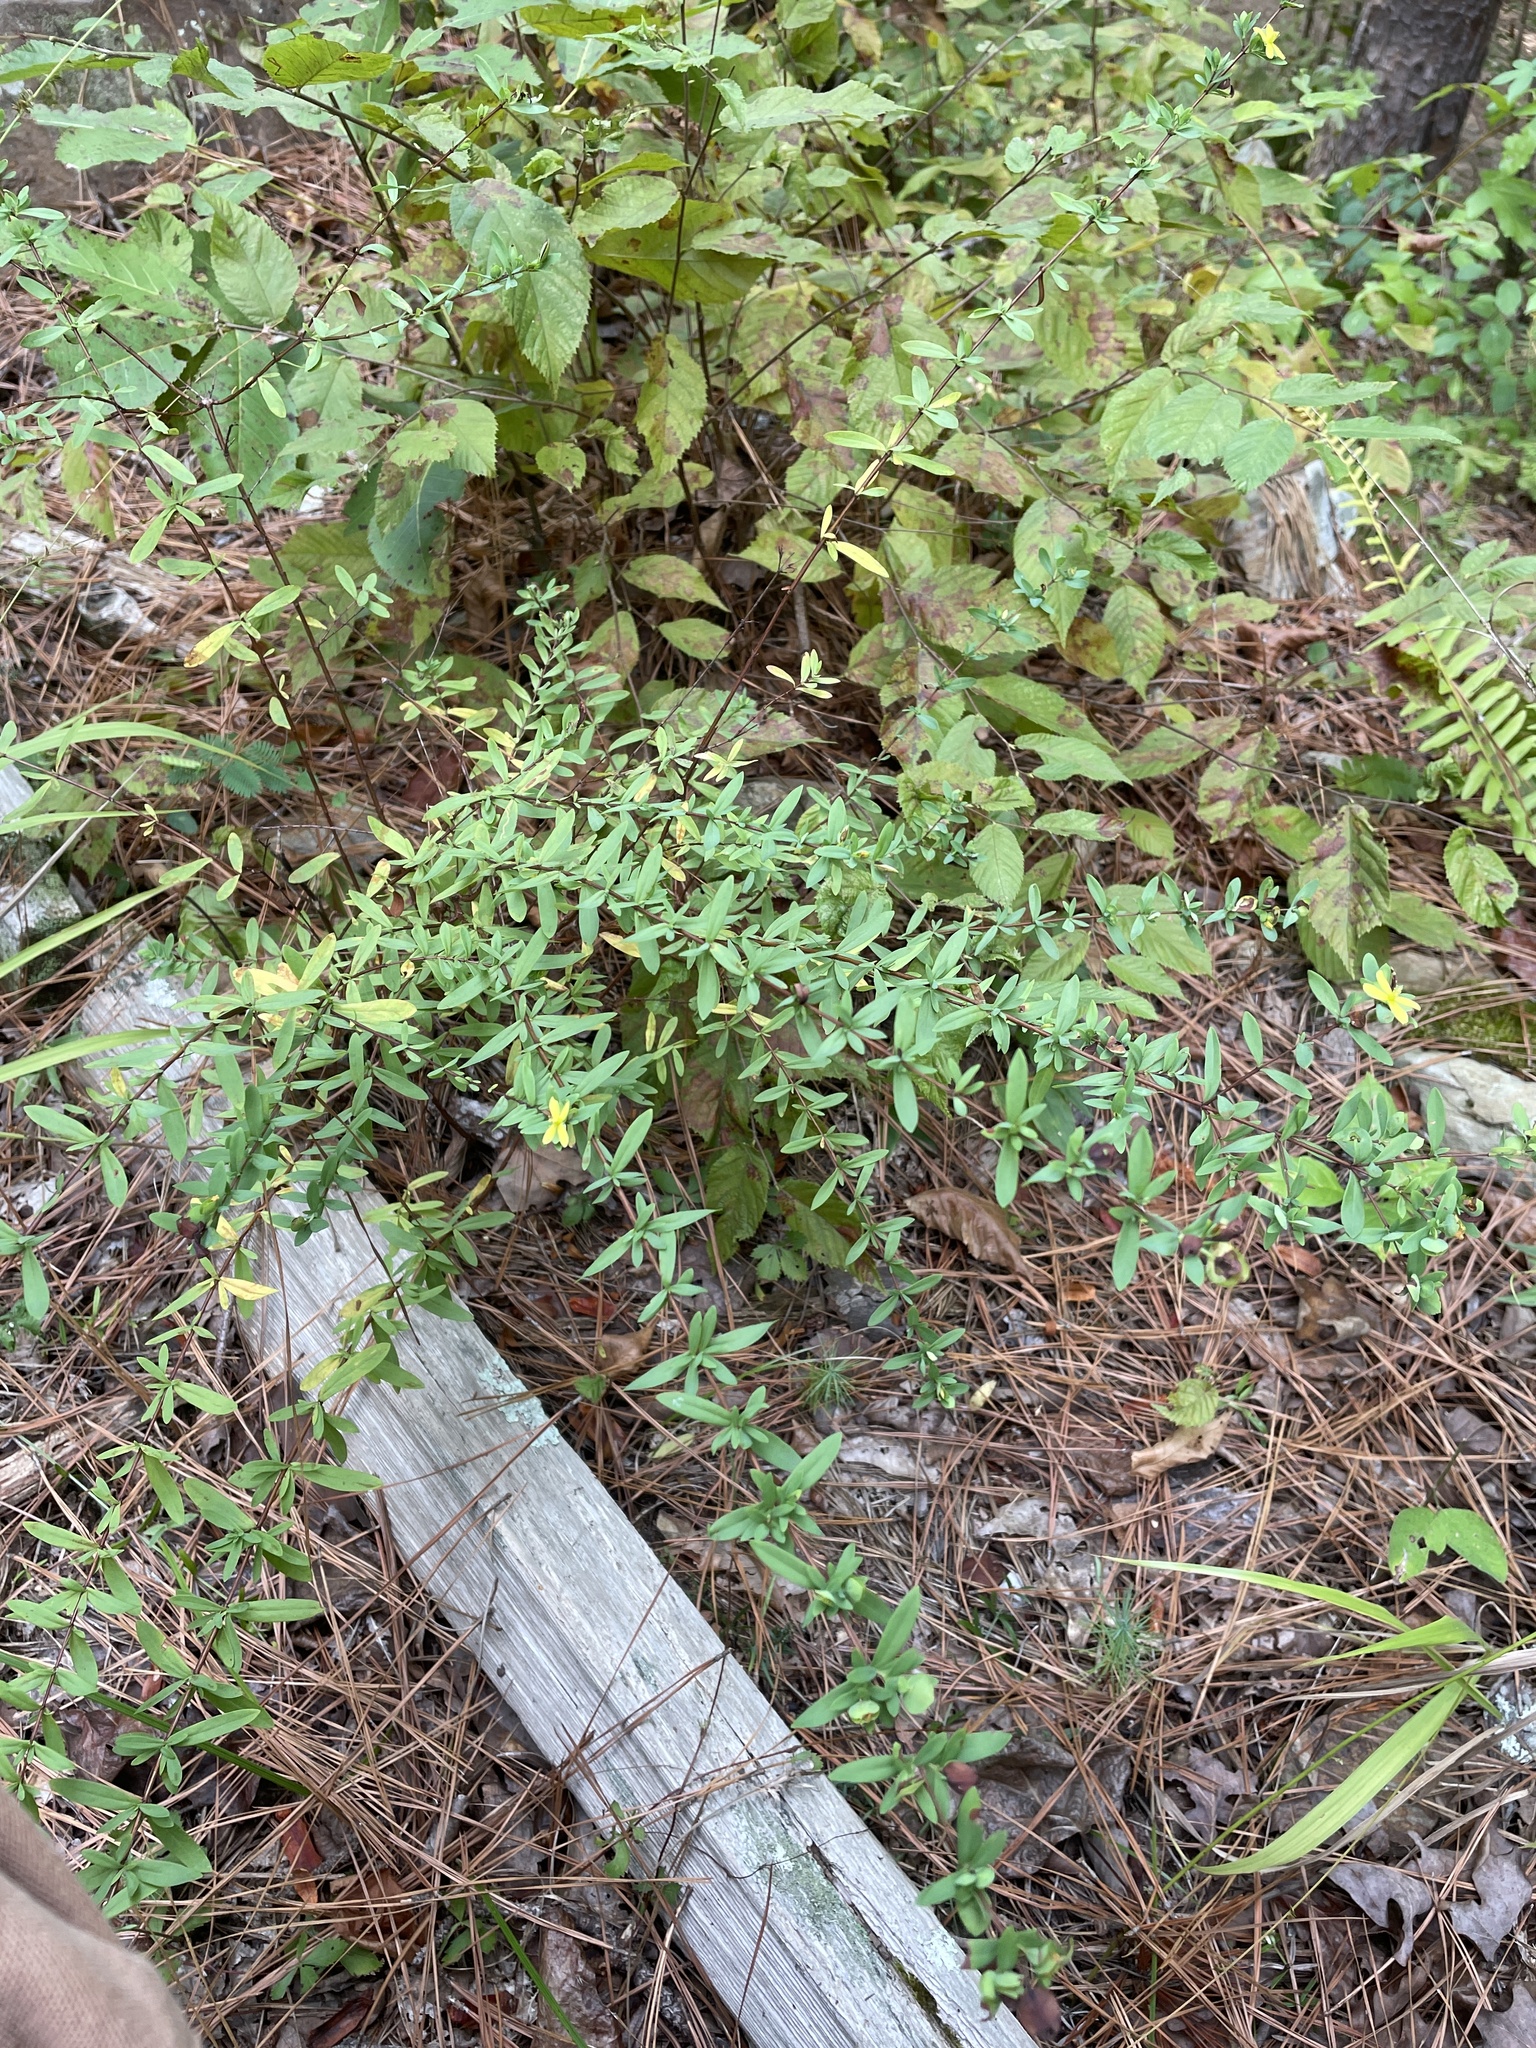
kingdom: Plantae
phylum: Tracheophyta
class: Magnoliopsida
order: Malpighiales
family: Hypericaceae
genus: Hypericum
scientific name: Hypericum hypericoides
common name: St. andrew's cross
